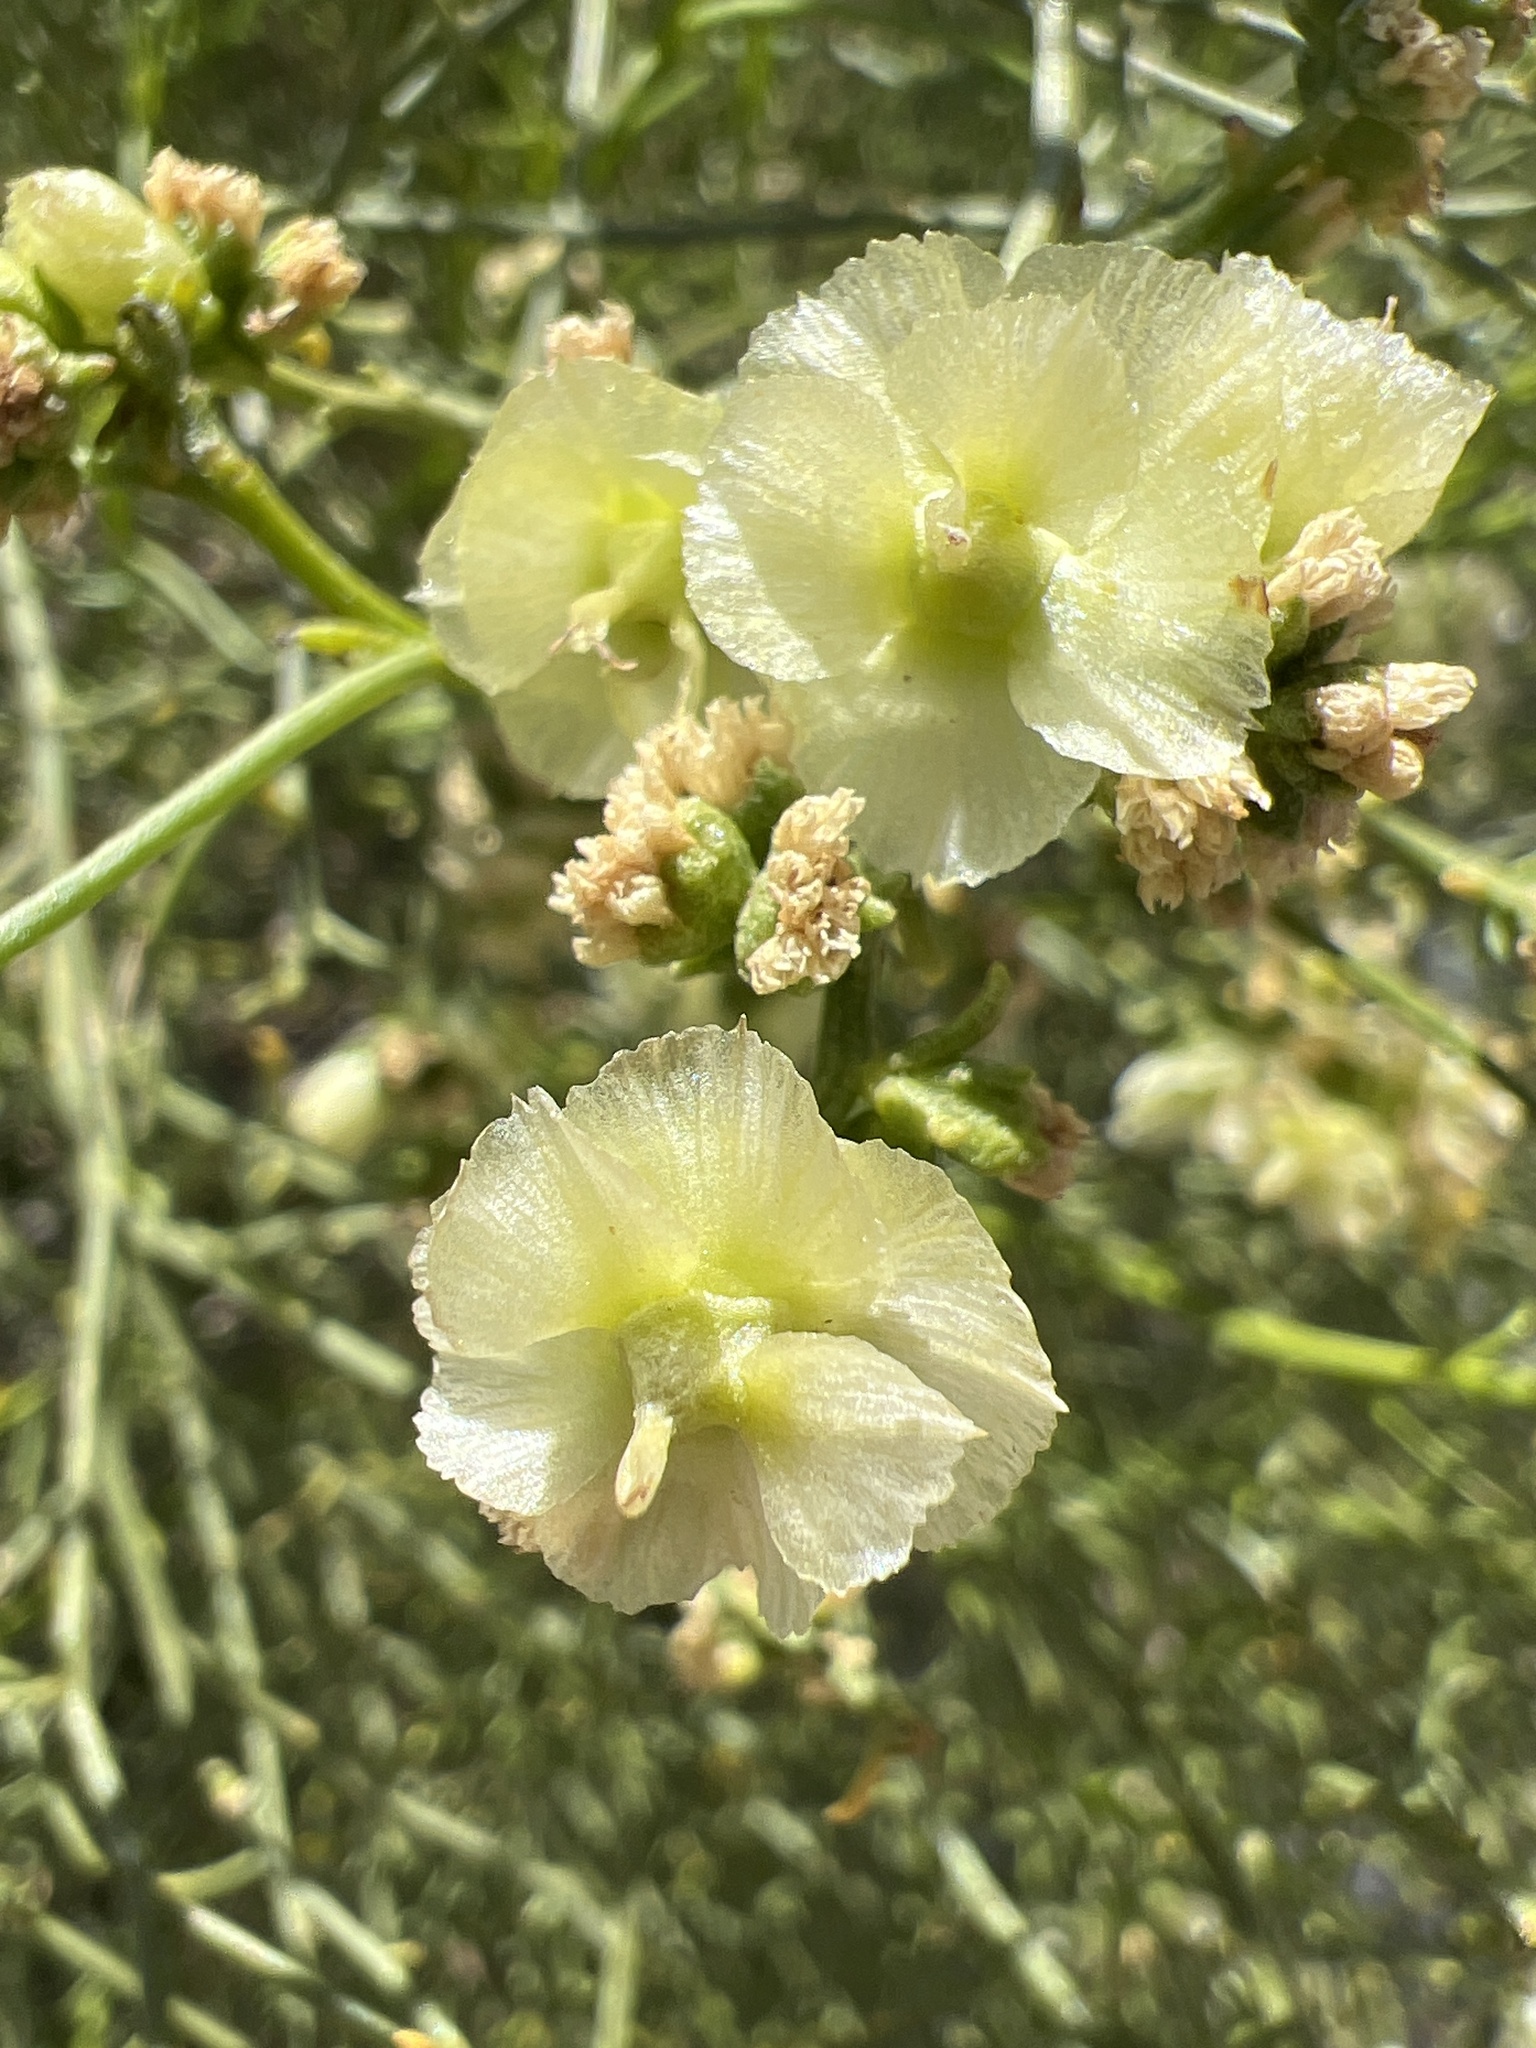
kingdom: Plantae
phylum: Tracheophyta
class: Magnoliopsida
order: Asterales
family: Asteraceae
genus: Ambrosia
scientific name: Ambrosia salsola
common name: Burrobrush
